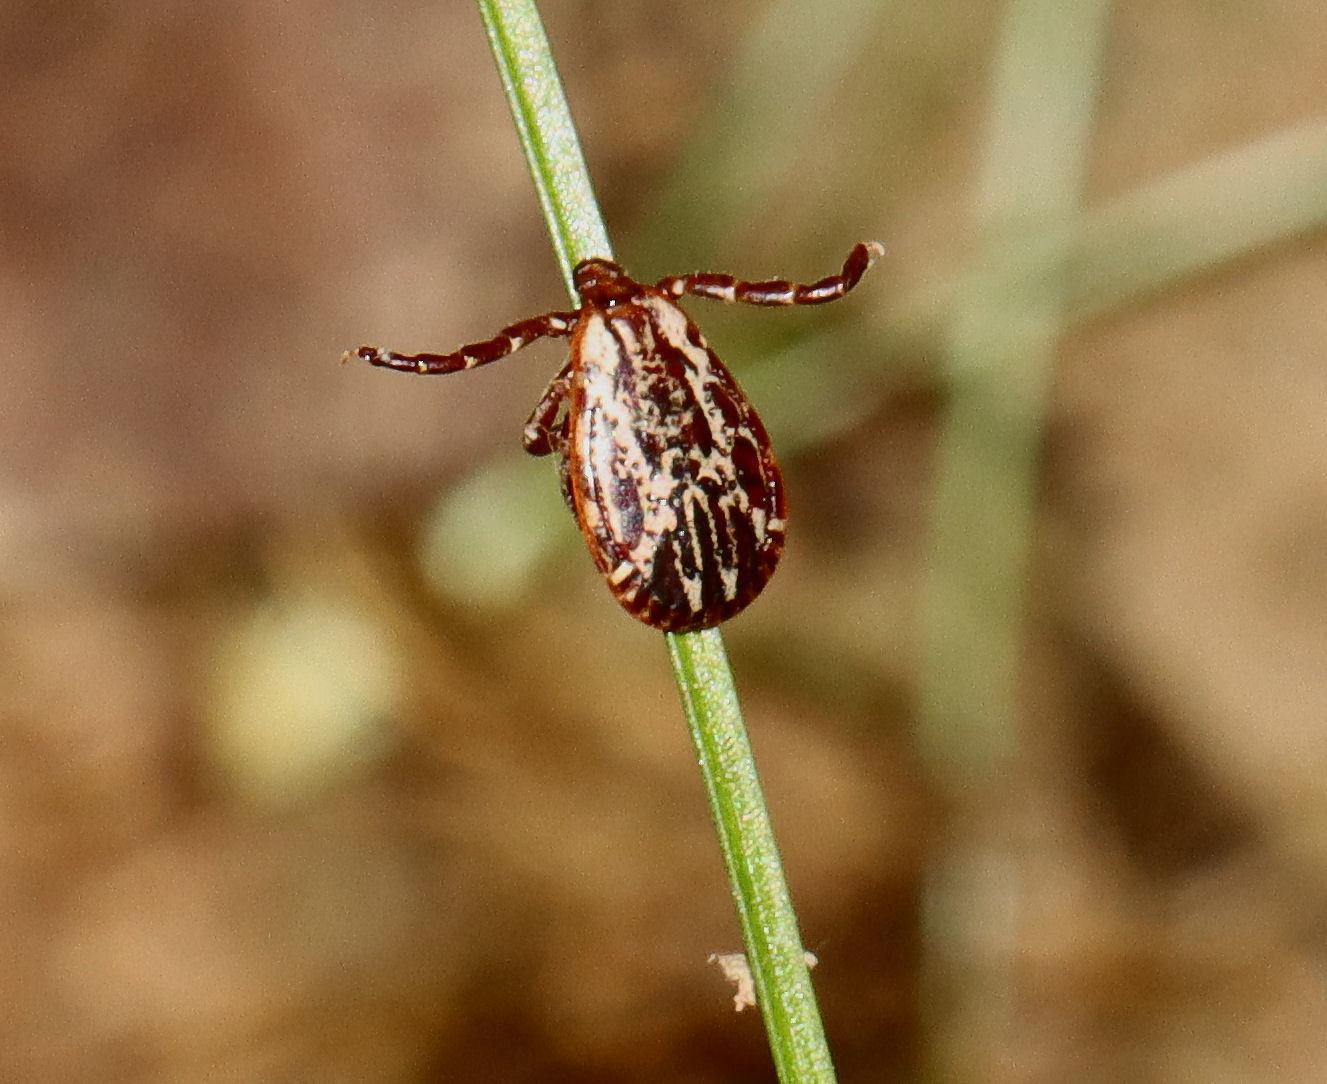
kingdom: Animalia
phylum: Arthropoda
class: Arachnida
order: Ixodida
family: Ixodidae
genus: Dermacentor
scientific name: Dermacentor variabilis
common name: American dog tick
